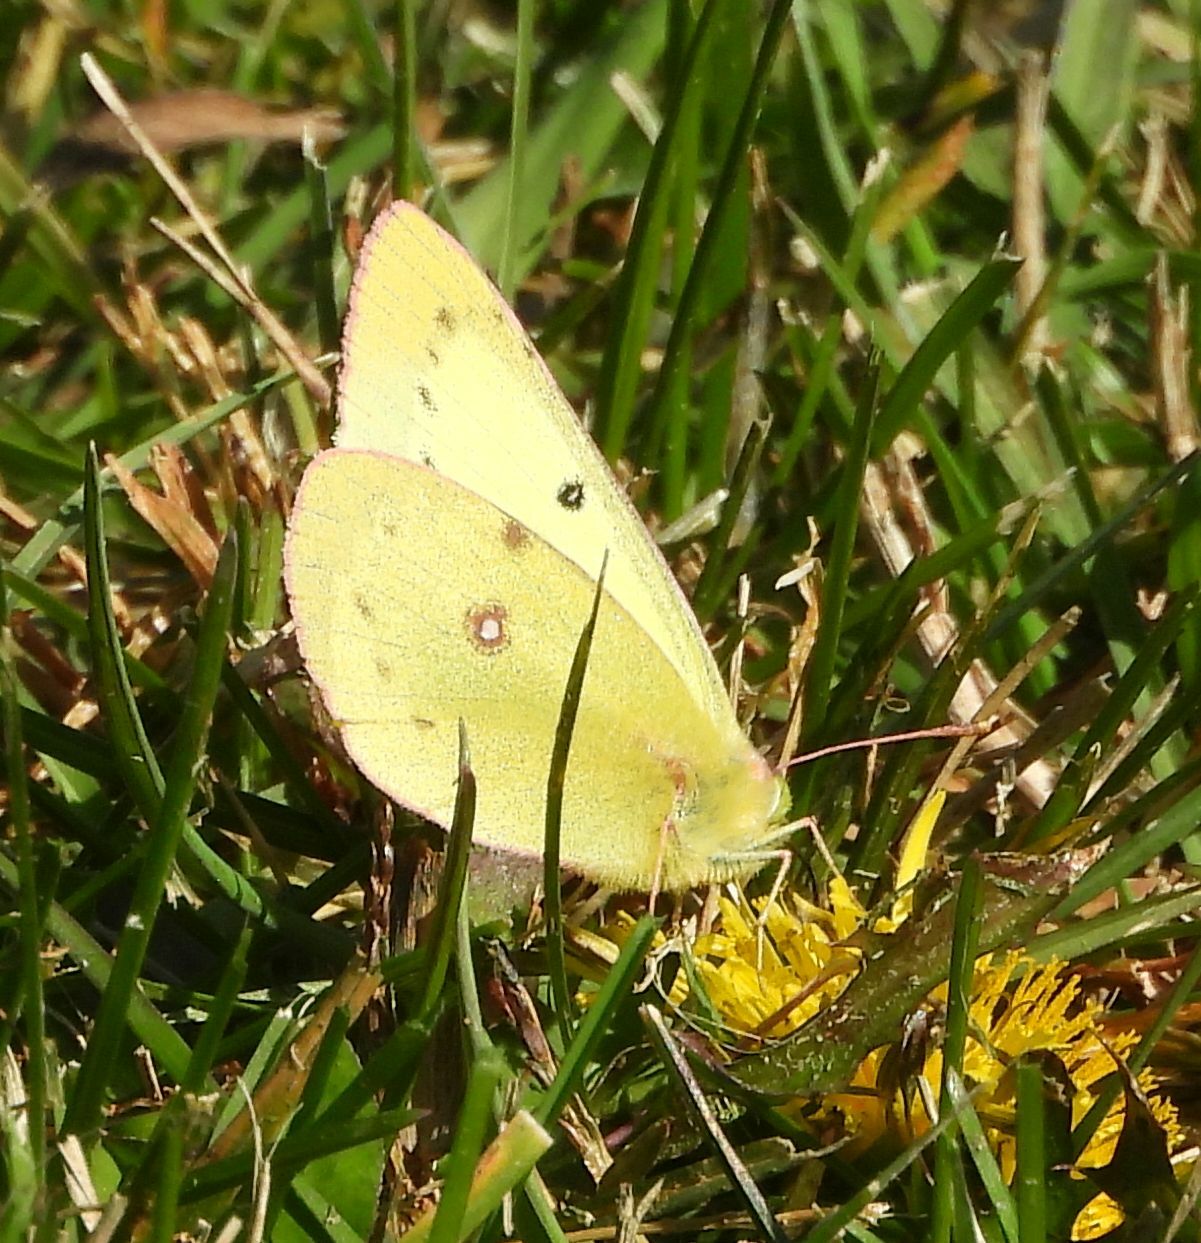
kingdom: Animalia
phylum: Arthropoda
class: Insecta
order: Lepidoptera
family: Pieridae
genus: Colias
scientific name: Colias philodice
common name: Clouded sulphur
